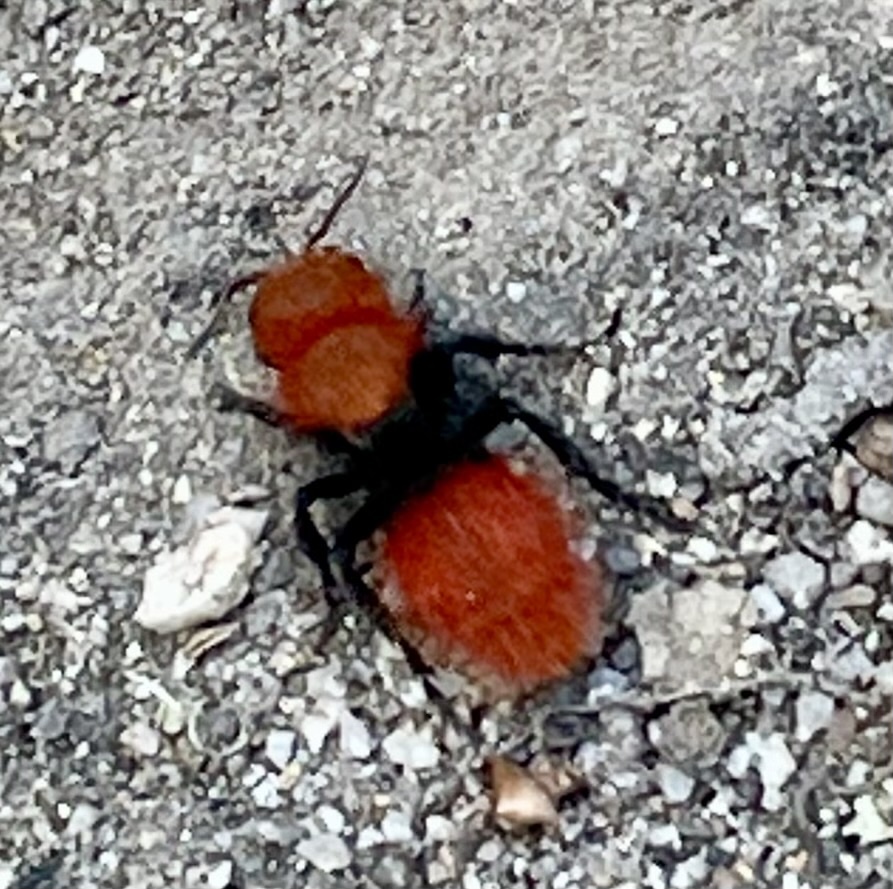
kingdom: Animalia
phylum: Arthropoda
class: Insecta
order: Hymenoptera
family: Mutillidae
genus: Dasymutilla
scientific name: Dasymutilla
